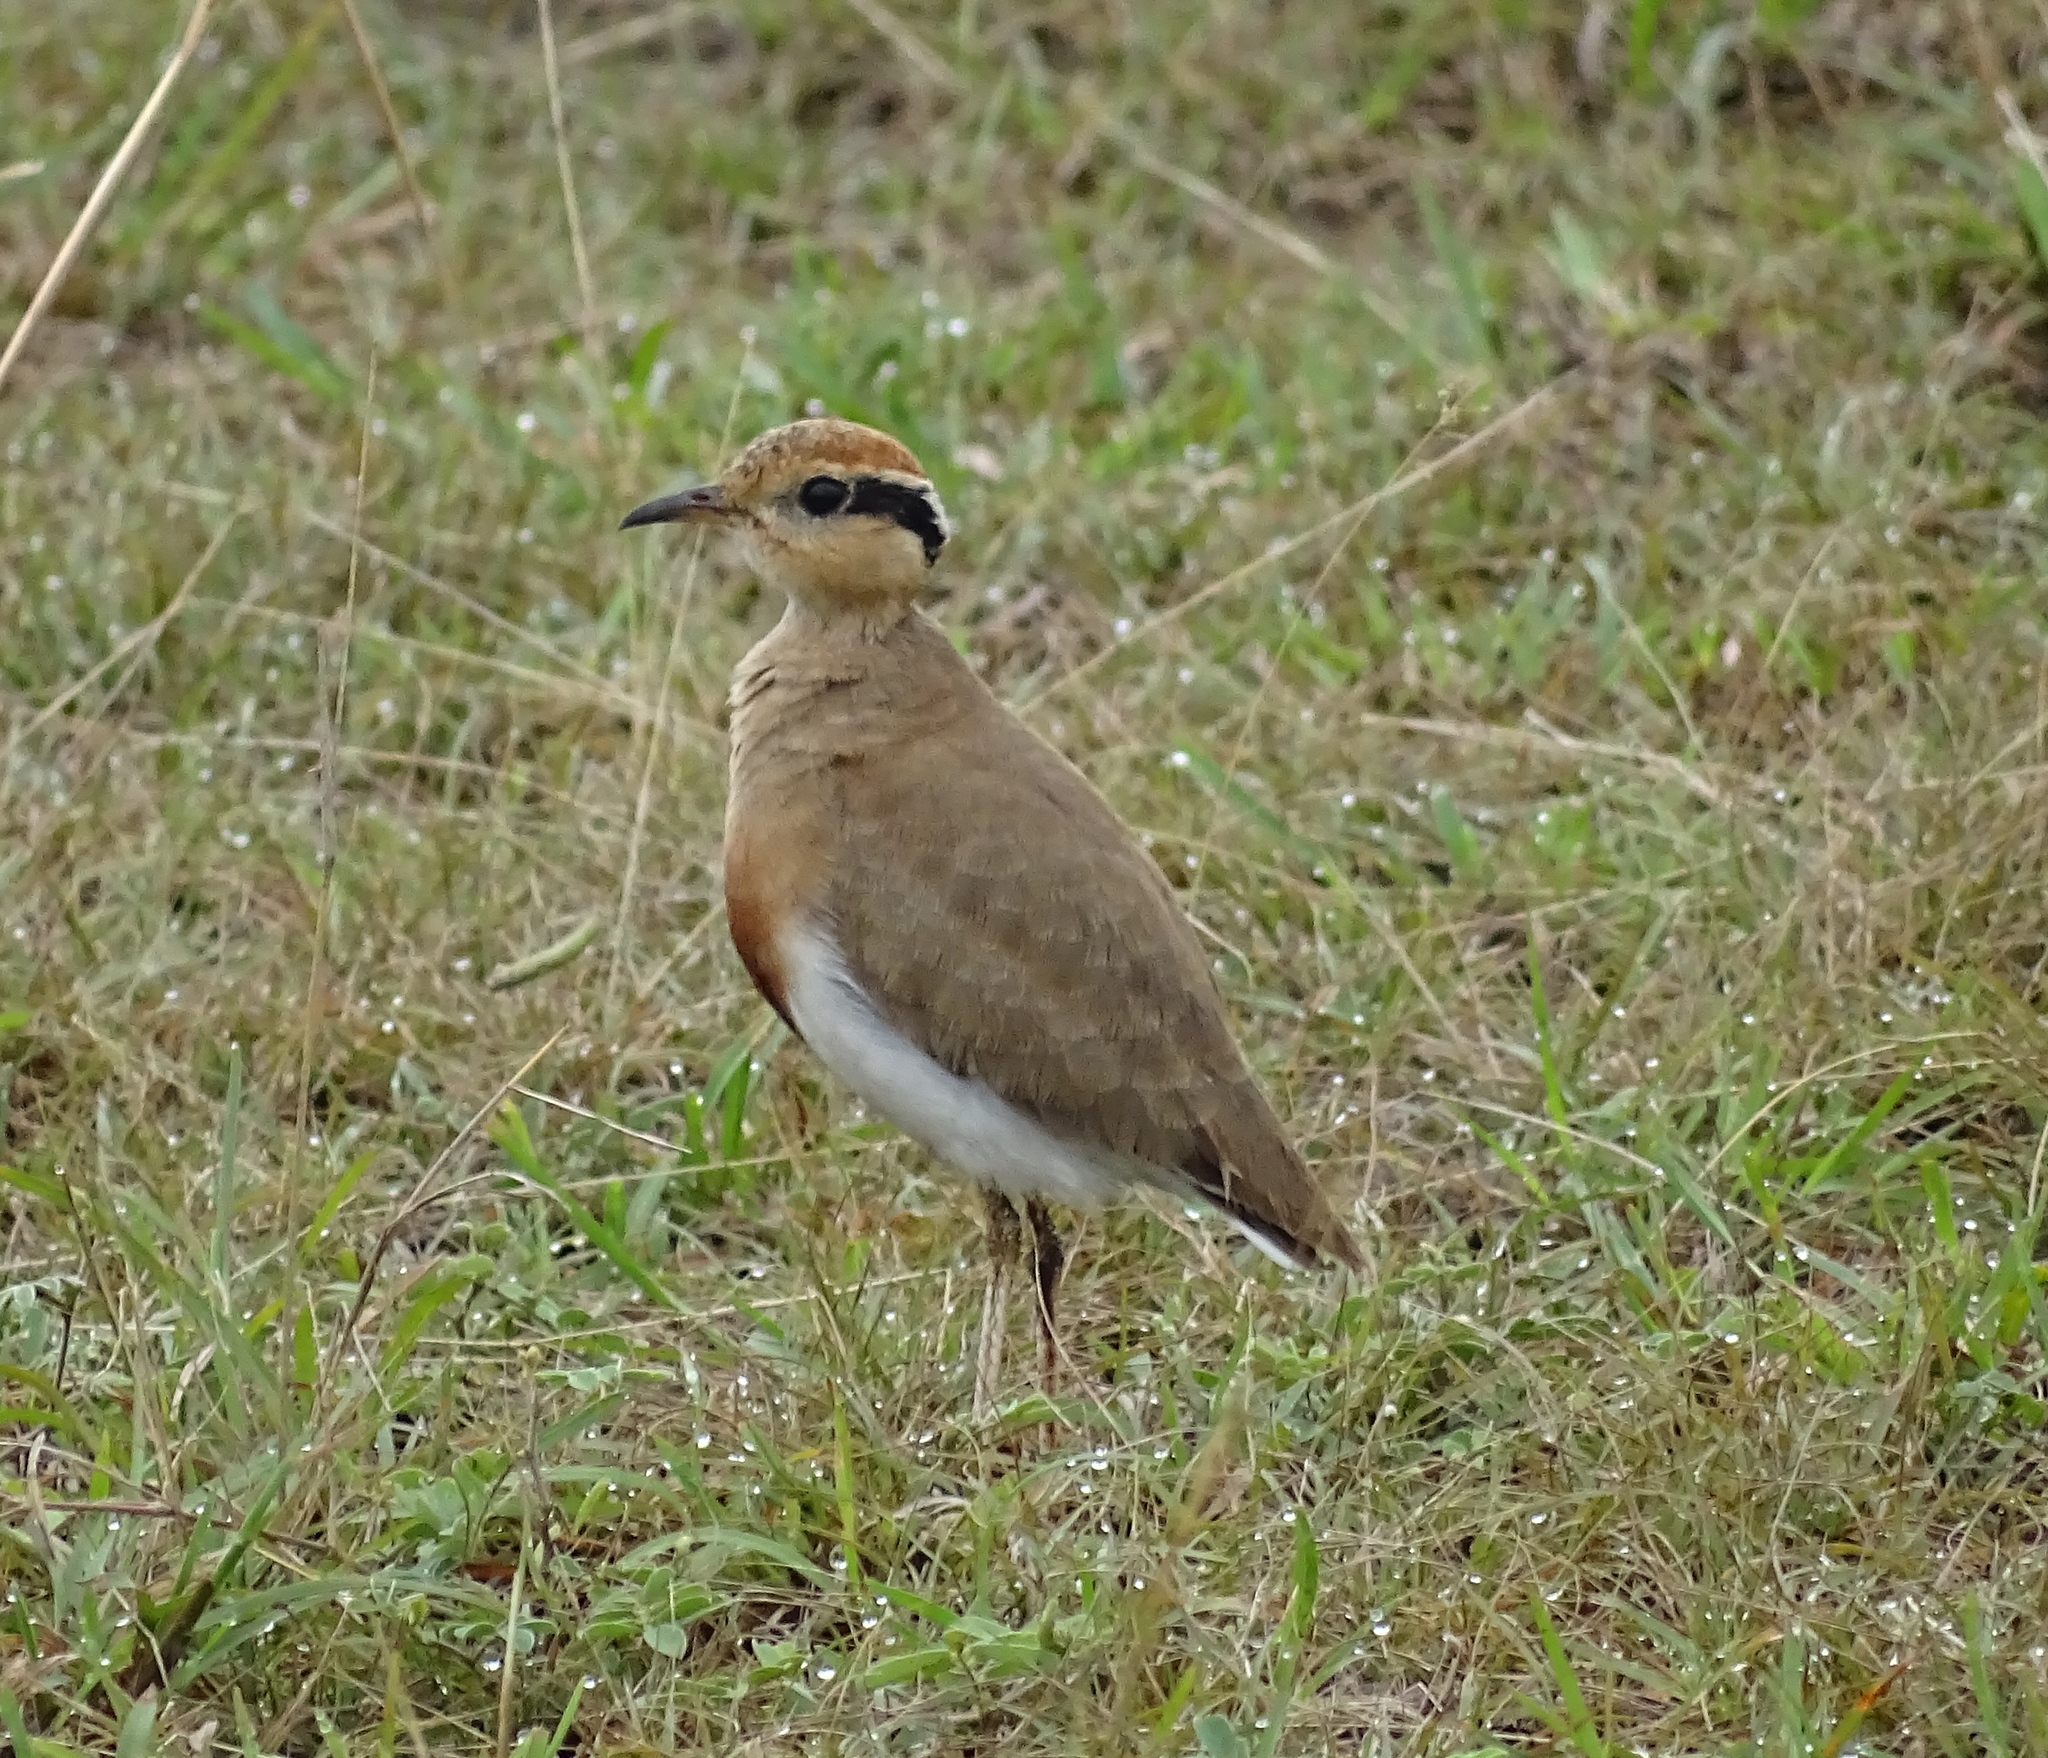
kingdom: Animalia
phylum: Chordata
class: Aves
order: Charadriiformes
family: Glareolidae
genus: Cursorius
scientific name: Cursorius temminckii
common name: Temminck's courser
